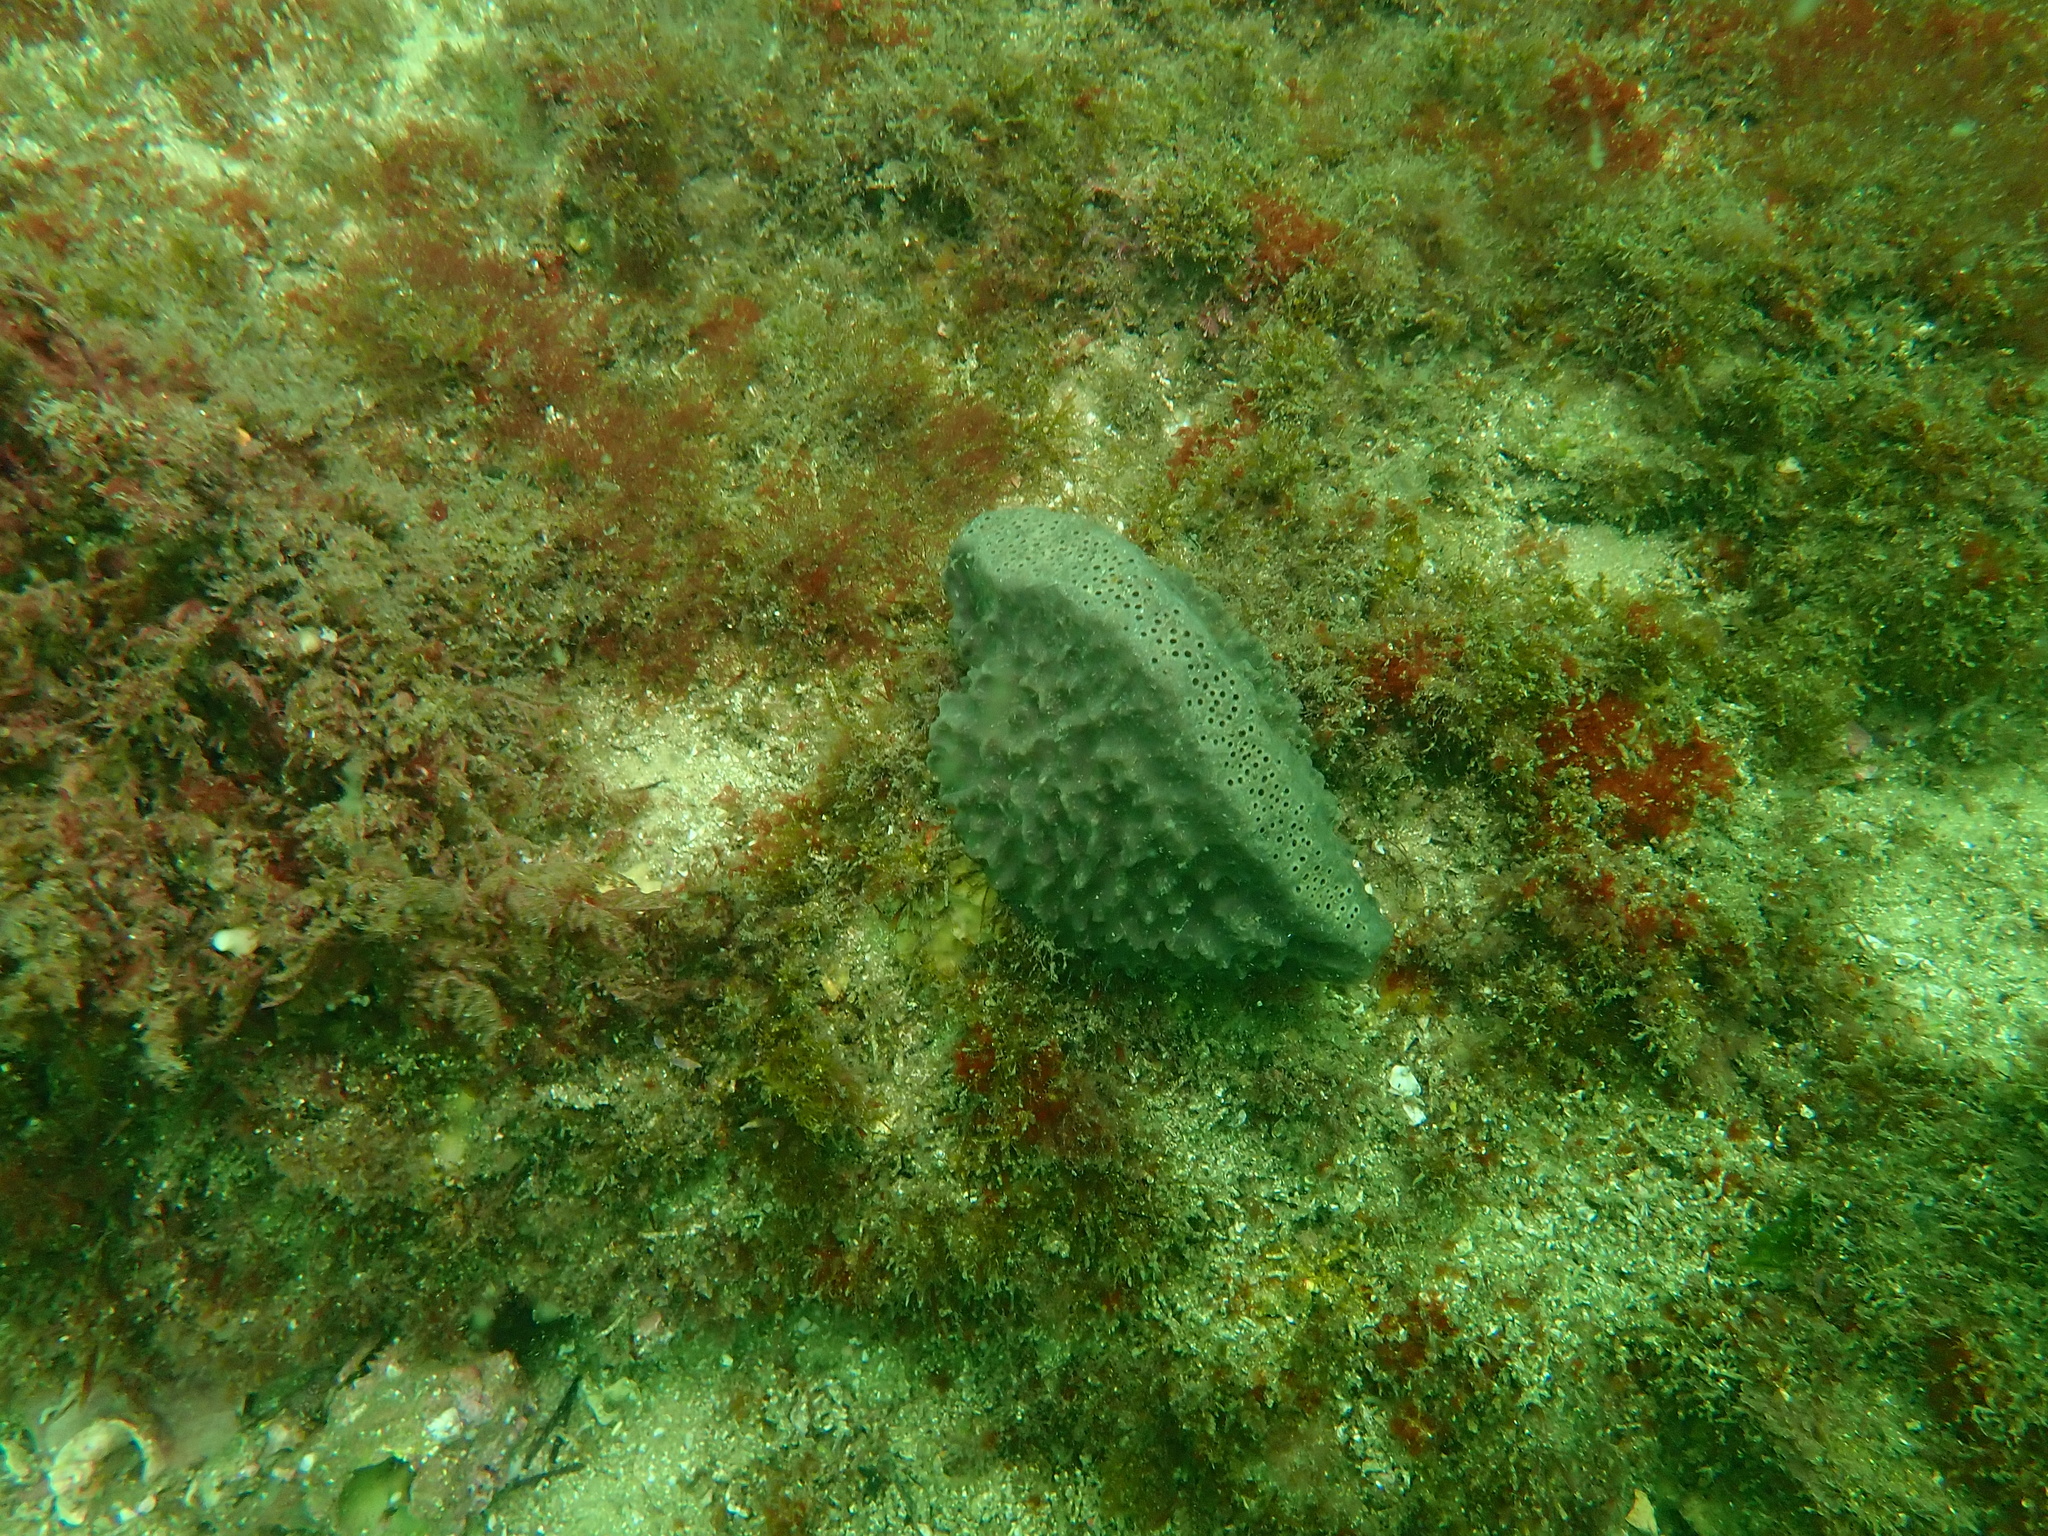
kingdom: Animalia
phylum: Porifera
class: Demospongiae
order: Clionaida
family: Clionaidae
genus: Spheciospongia
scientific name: Spheciospongia papillosa
